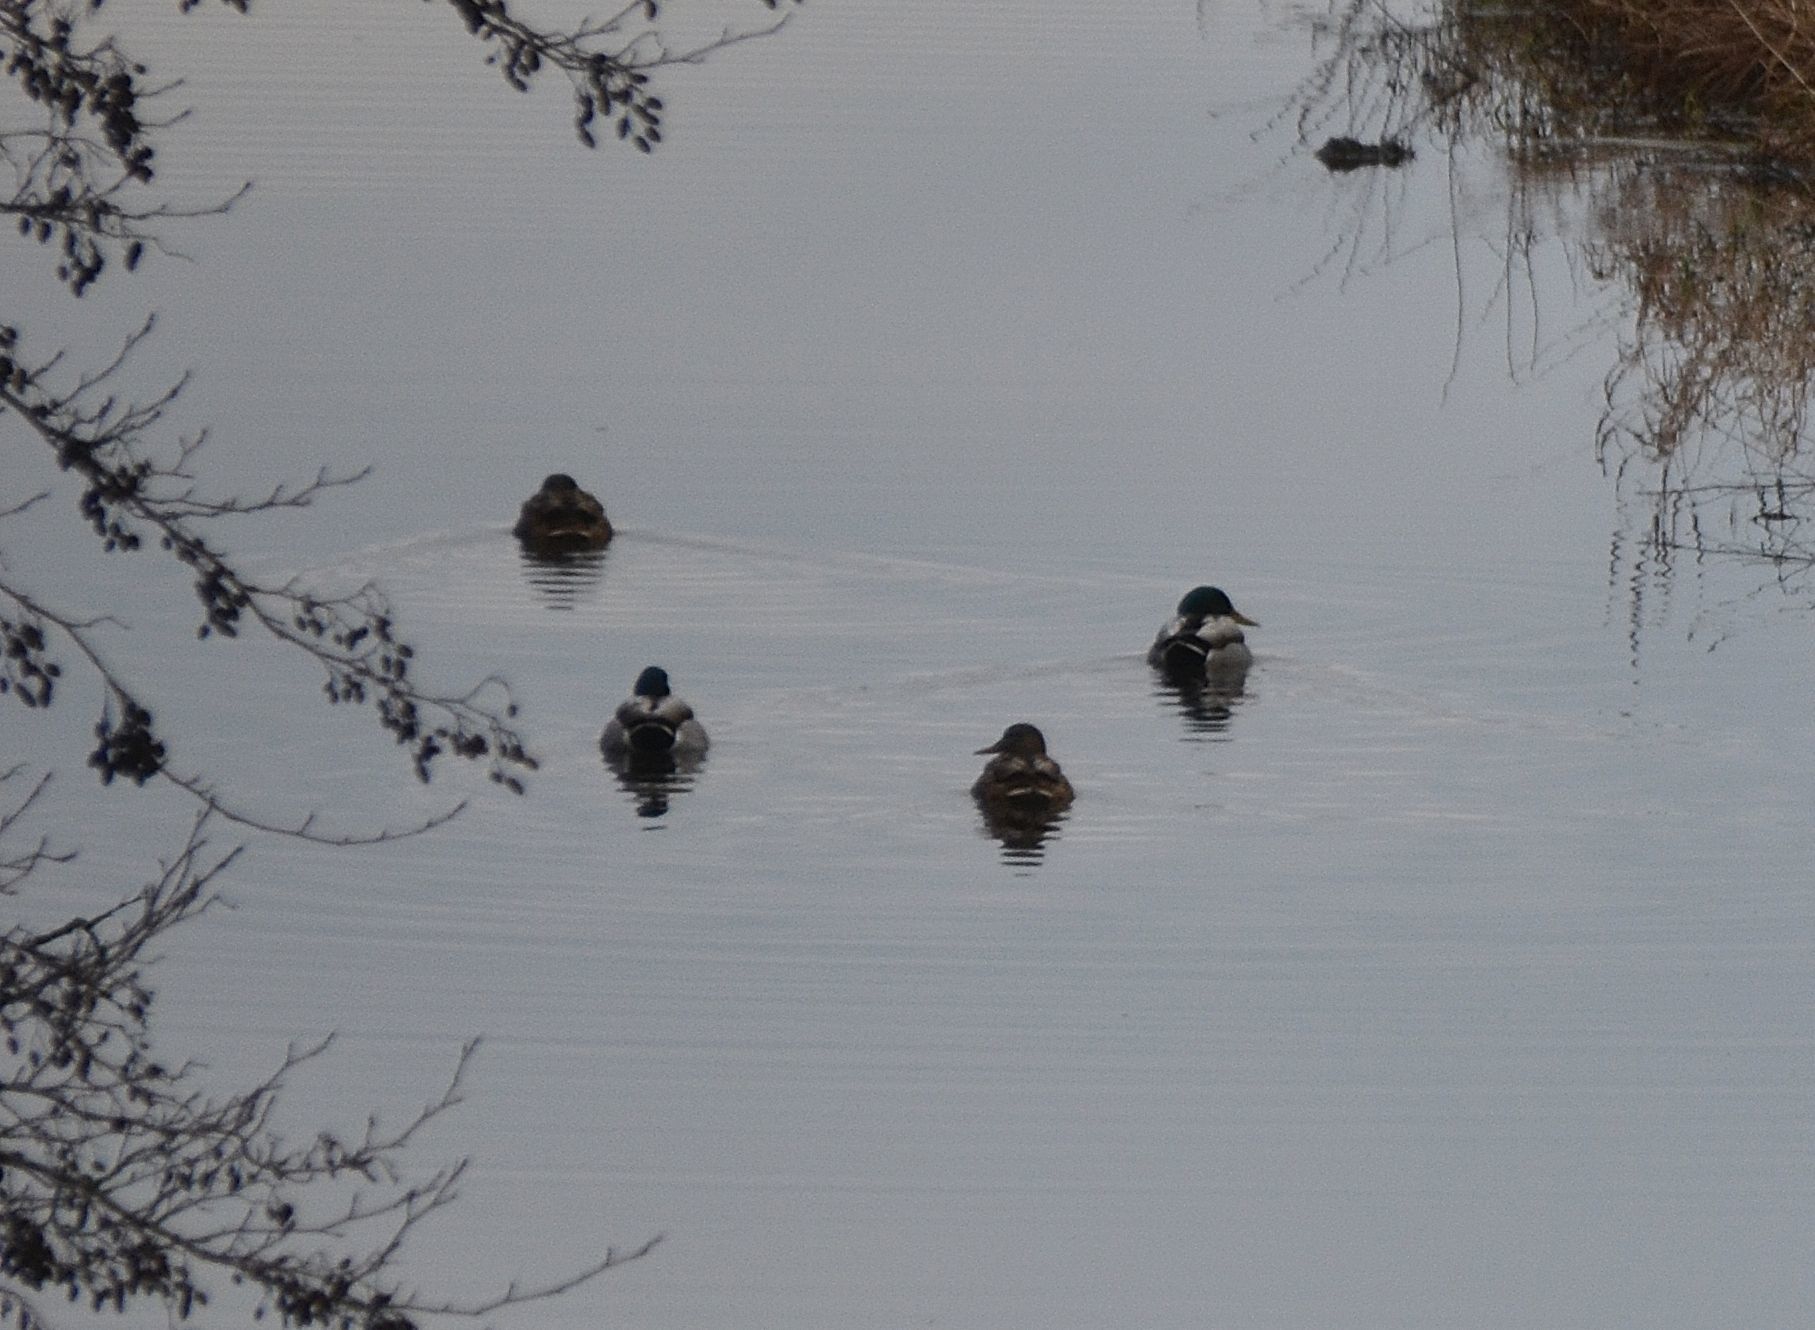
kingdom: Animalia
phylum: Chordata
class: Aves
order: Anseriformes
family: Anatidae
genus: Anas
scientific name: Anas platyrhynchos
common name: Mallard
